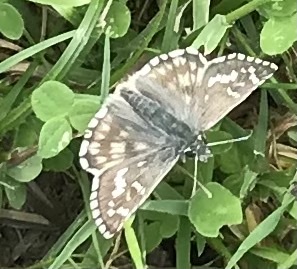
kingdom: Animalia
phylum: Arthropoda
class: Insecta
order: Lepidoptera
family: Hesperiidae
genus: Pyrgus
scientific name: Pyrgus armoricanus
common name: Oberthür's grizzled skipper
